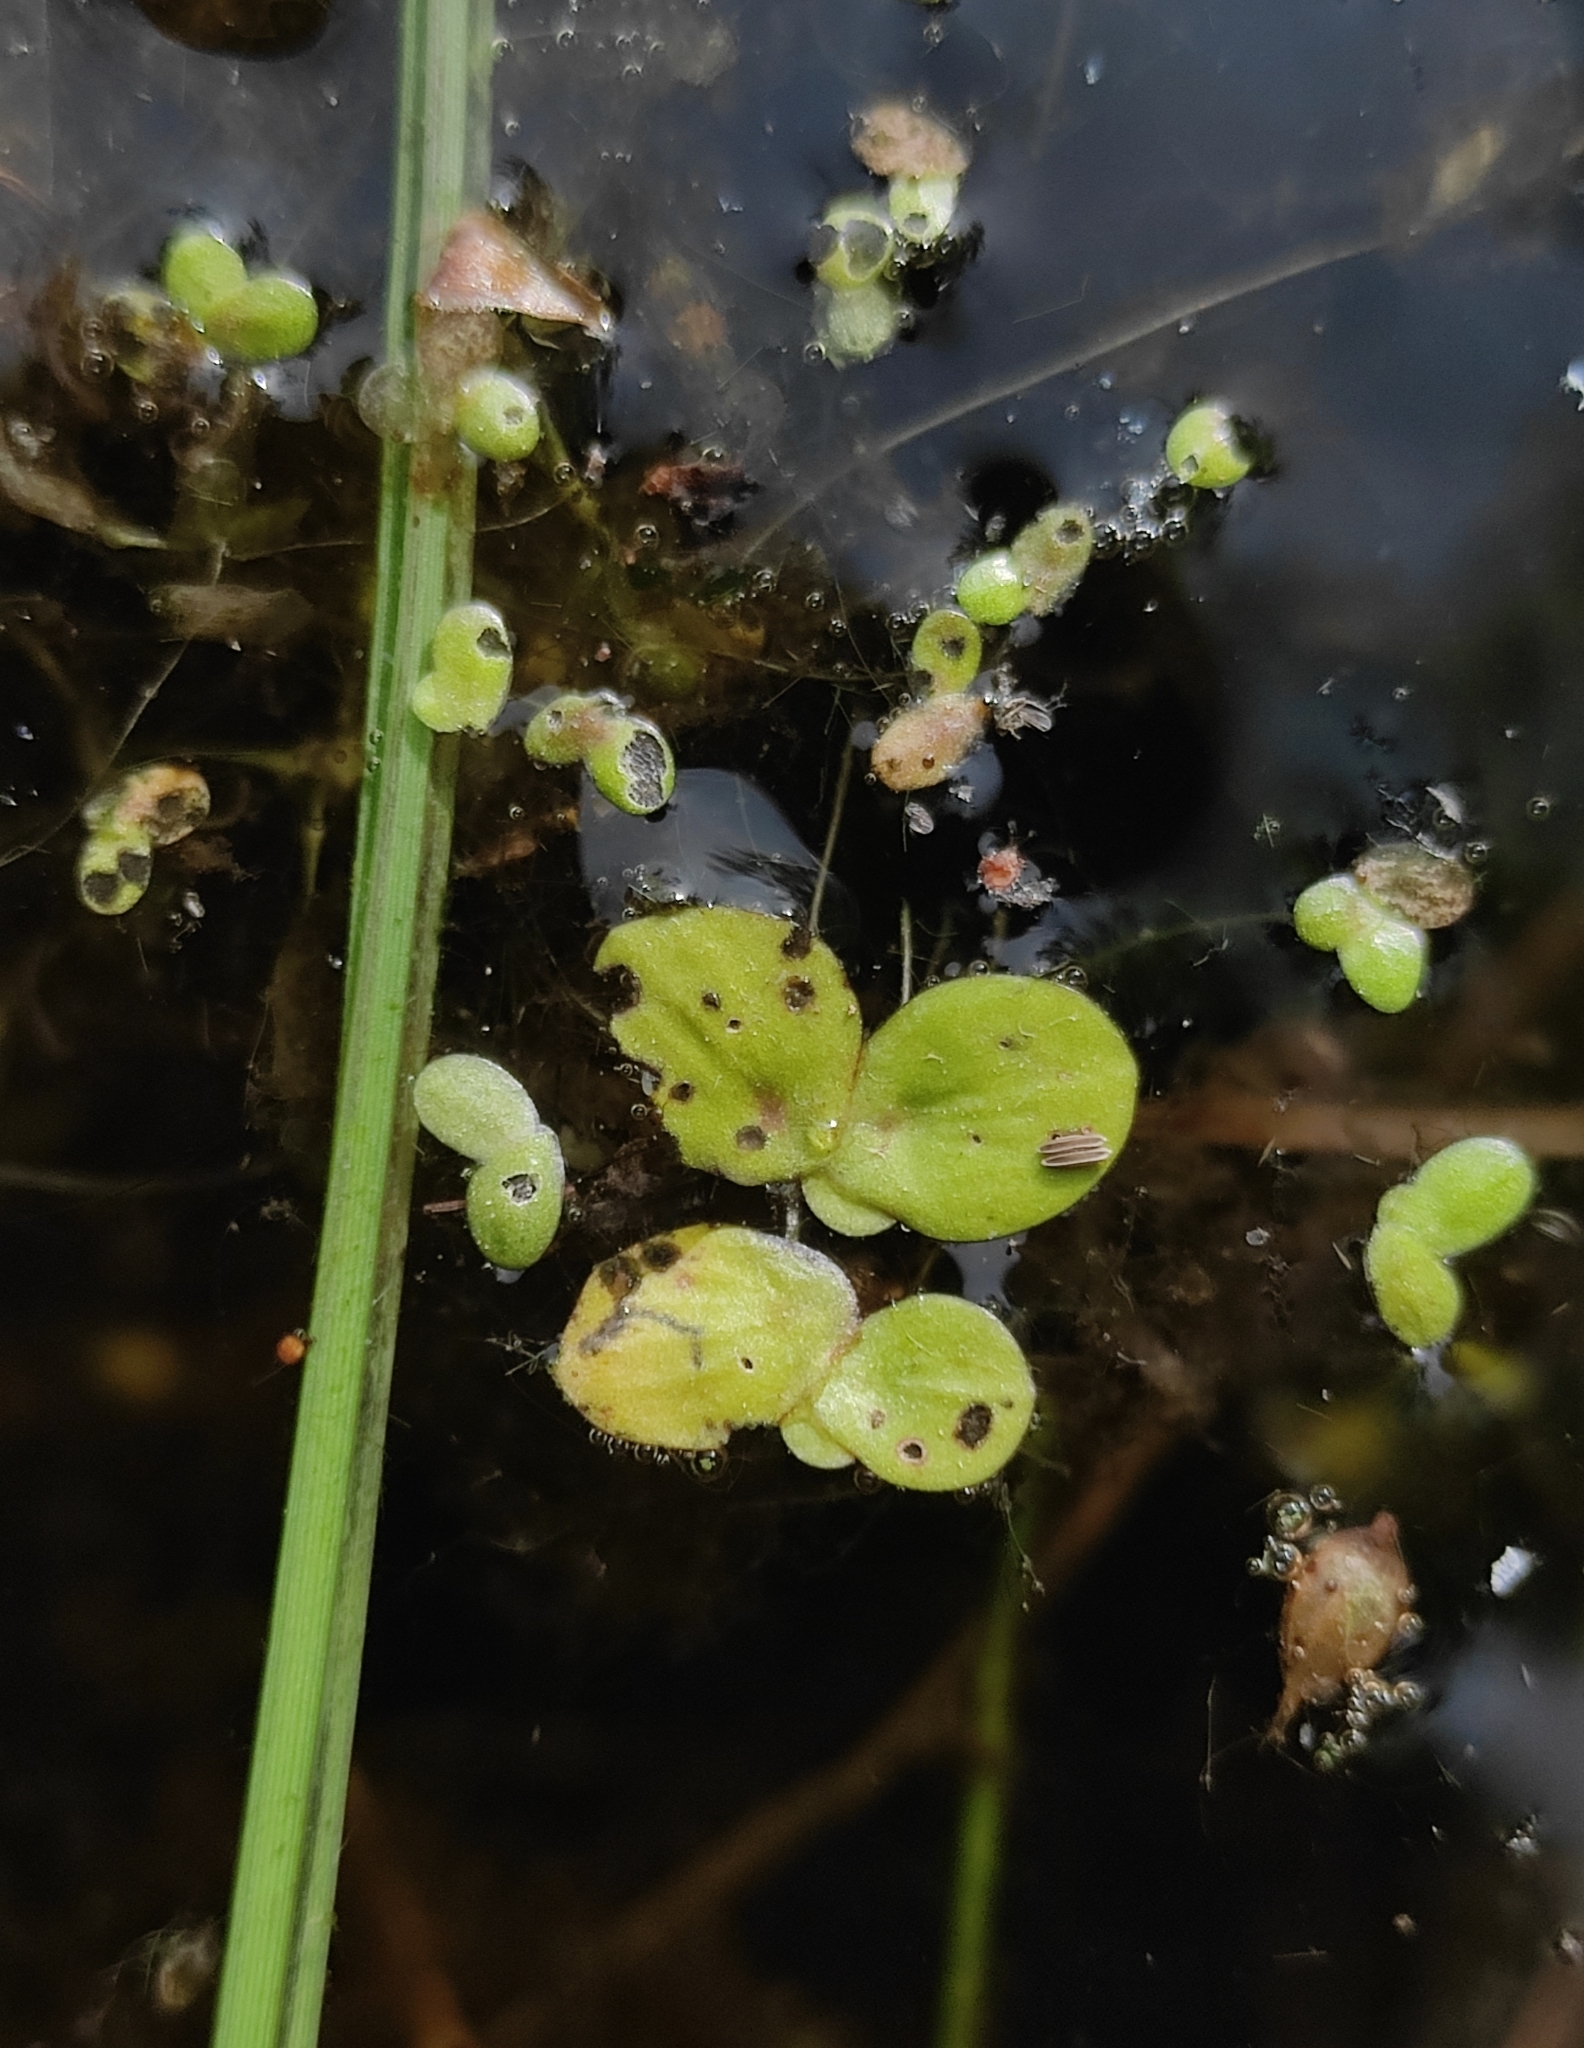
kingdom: Plantae
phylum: Tracheophyta
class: Liliopsida
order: Alismatales
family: Araceae
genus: Spirodela
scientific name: Spirodela polyrhiza
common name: Great duckweed
